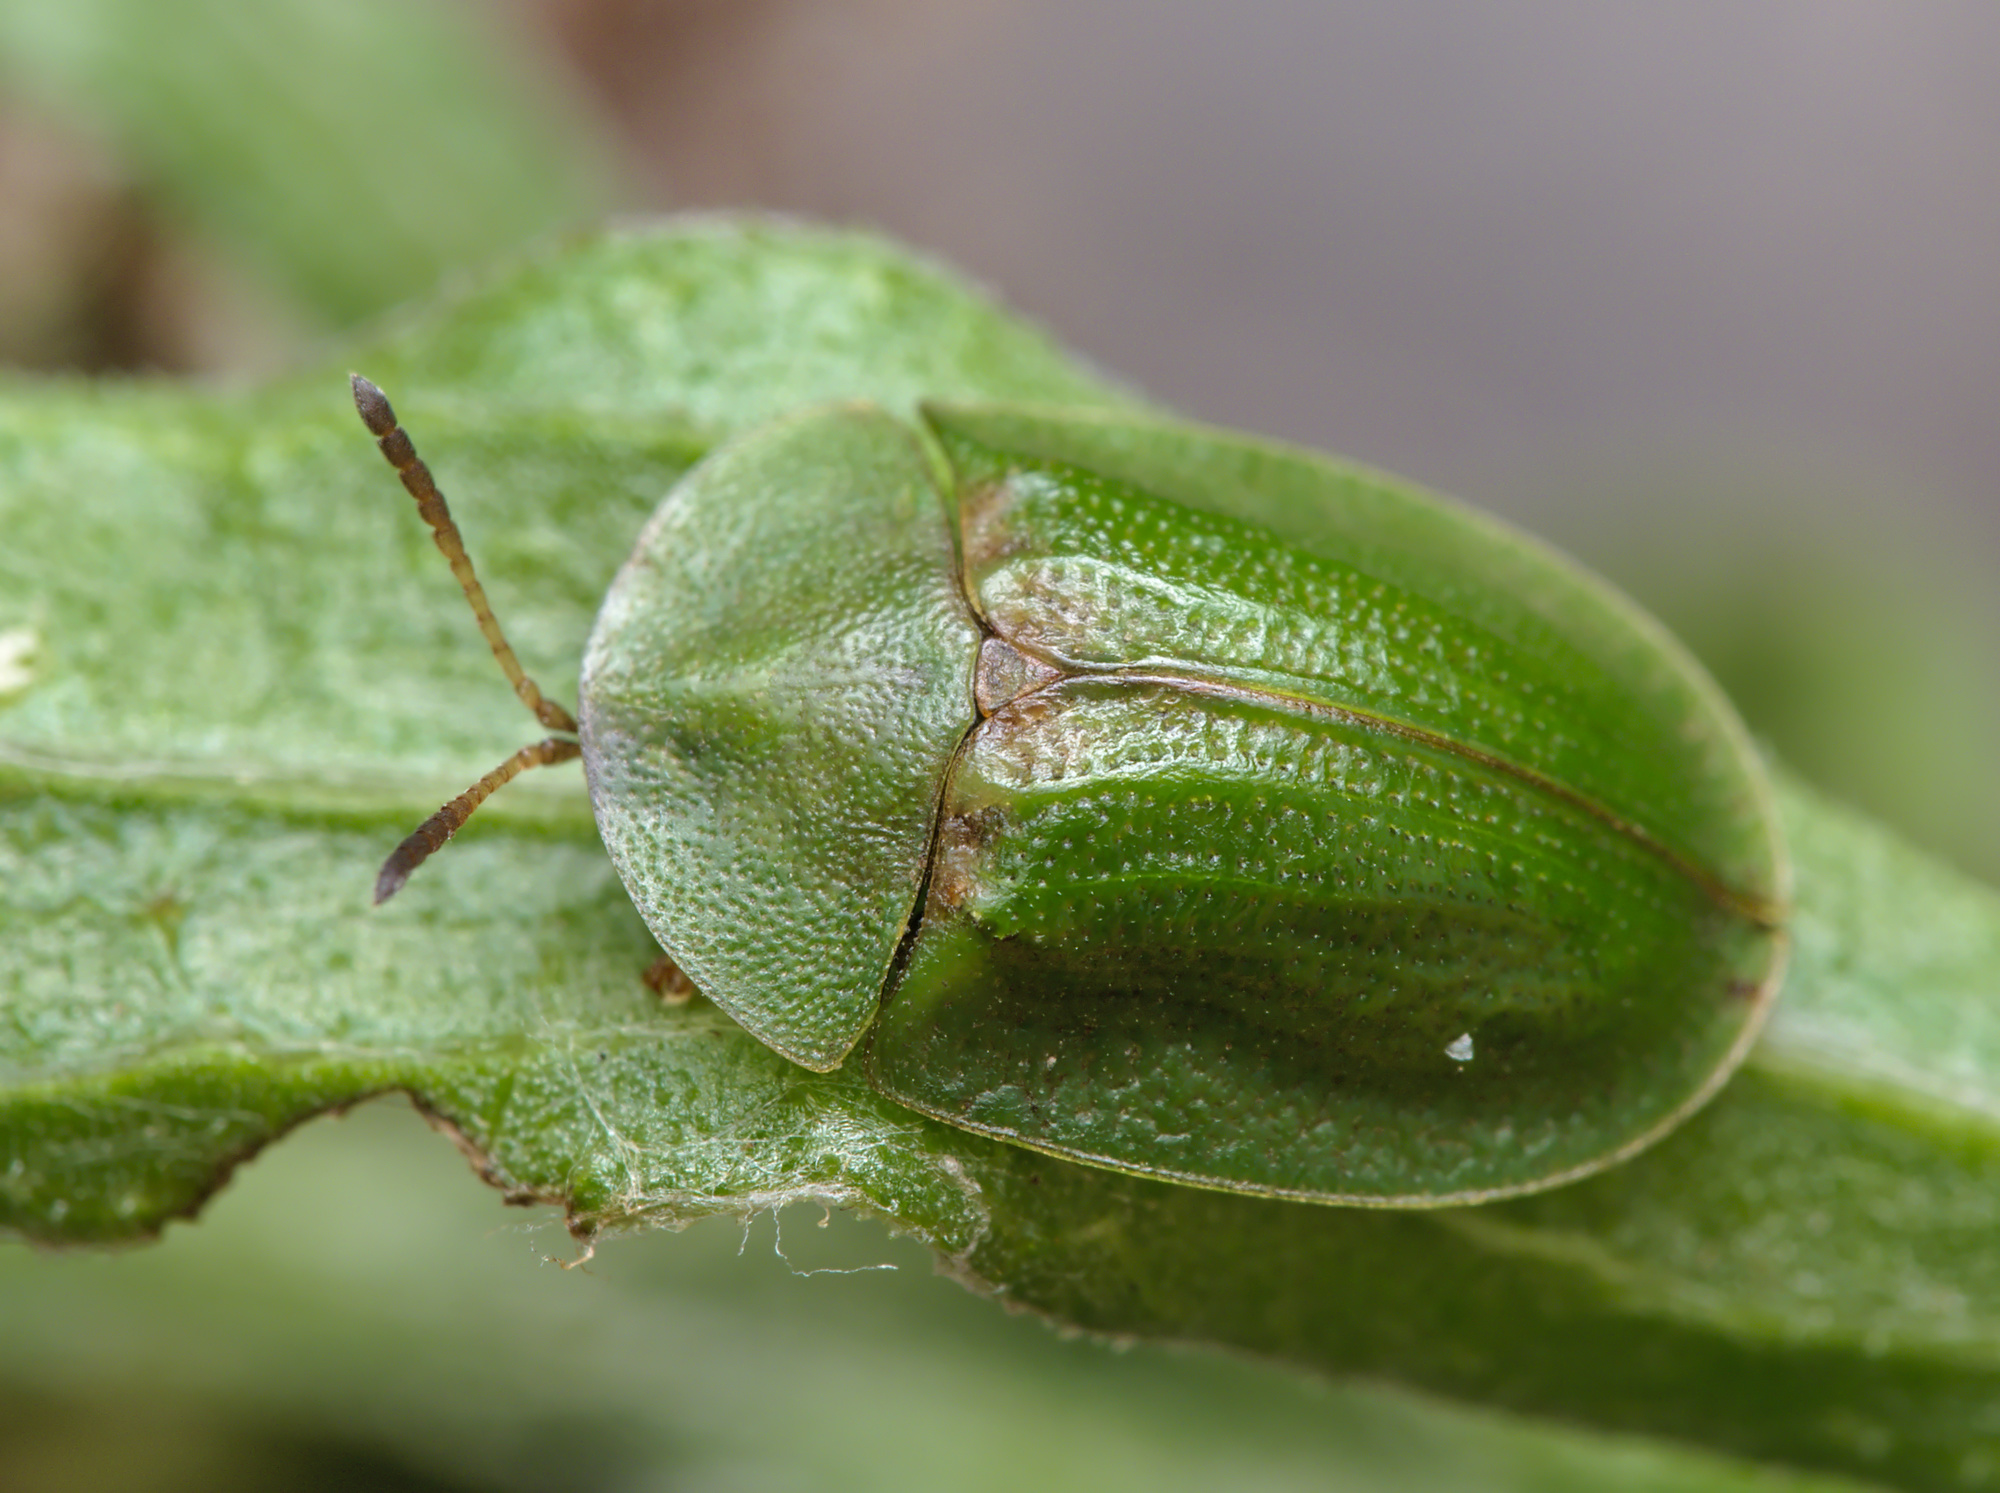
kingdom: Animalia
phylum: Arthropoda
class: Insecta
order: Coleoptera
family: Chrysomelidae
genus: Cassida
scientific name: Cassida rubiginosa
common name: Thistle tortoise beetle
